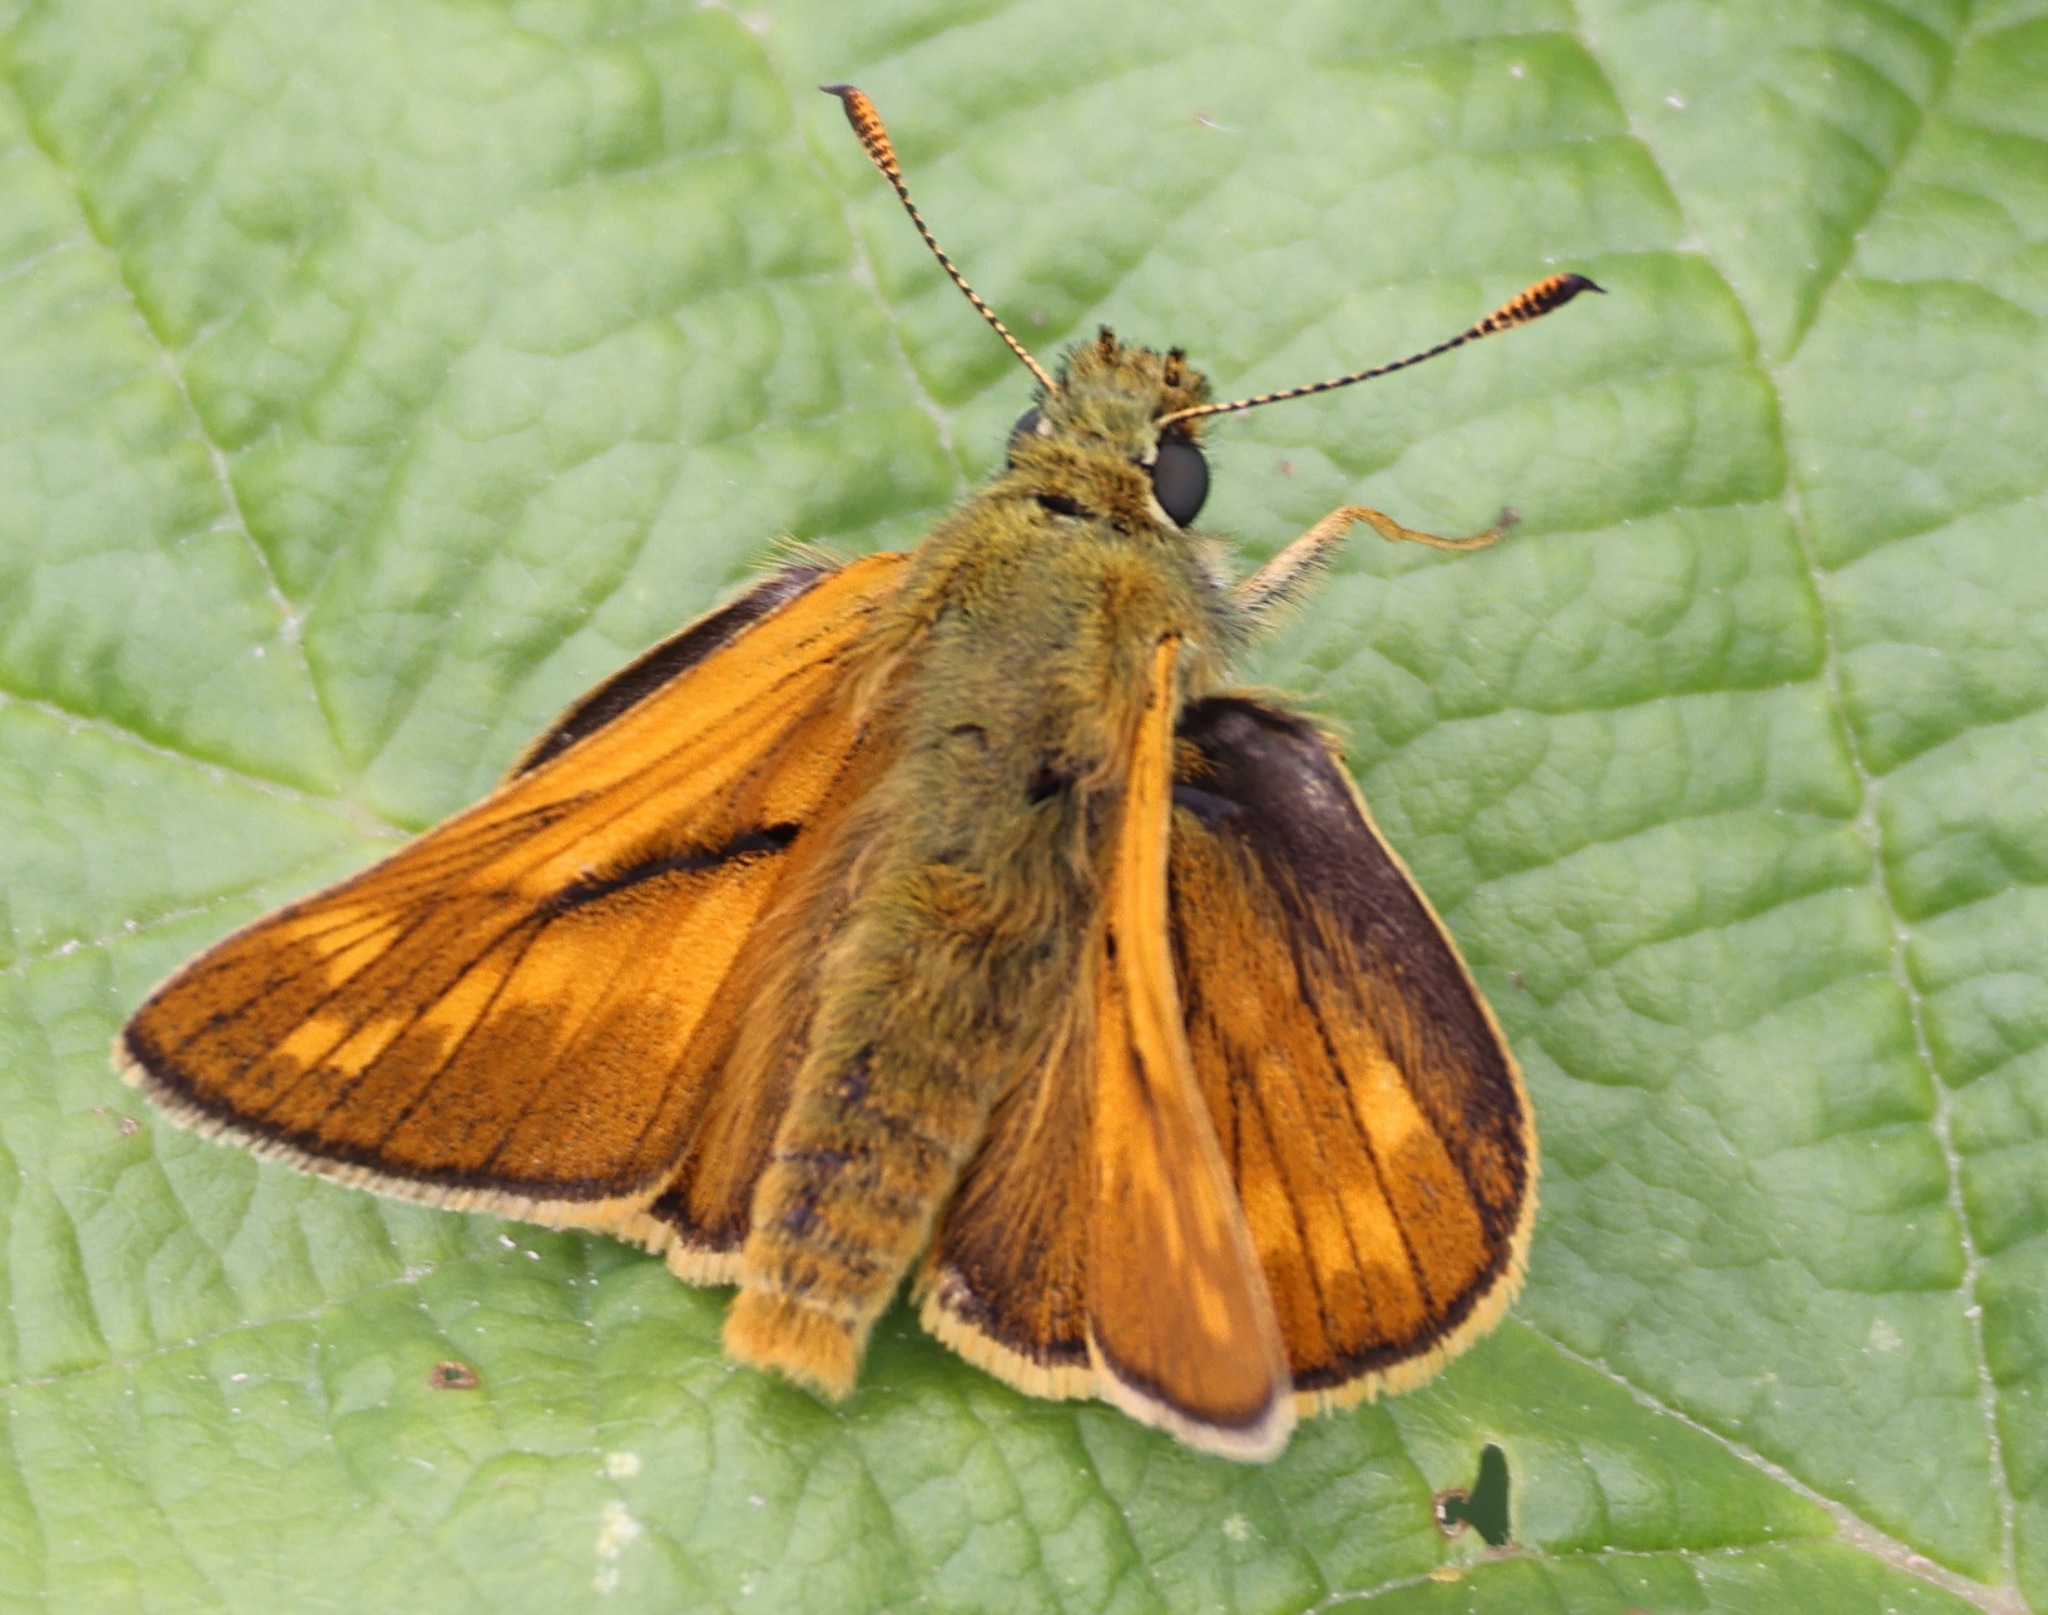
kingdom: Animalia
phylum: Arthropoda
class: Insecta
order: Lepidoptera
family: Hesperiidae
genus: Ochlodes
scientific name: Ochlodes venata
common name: Large skipper
